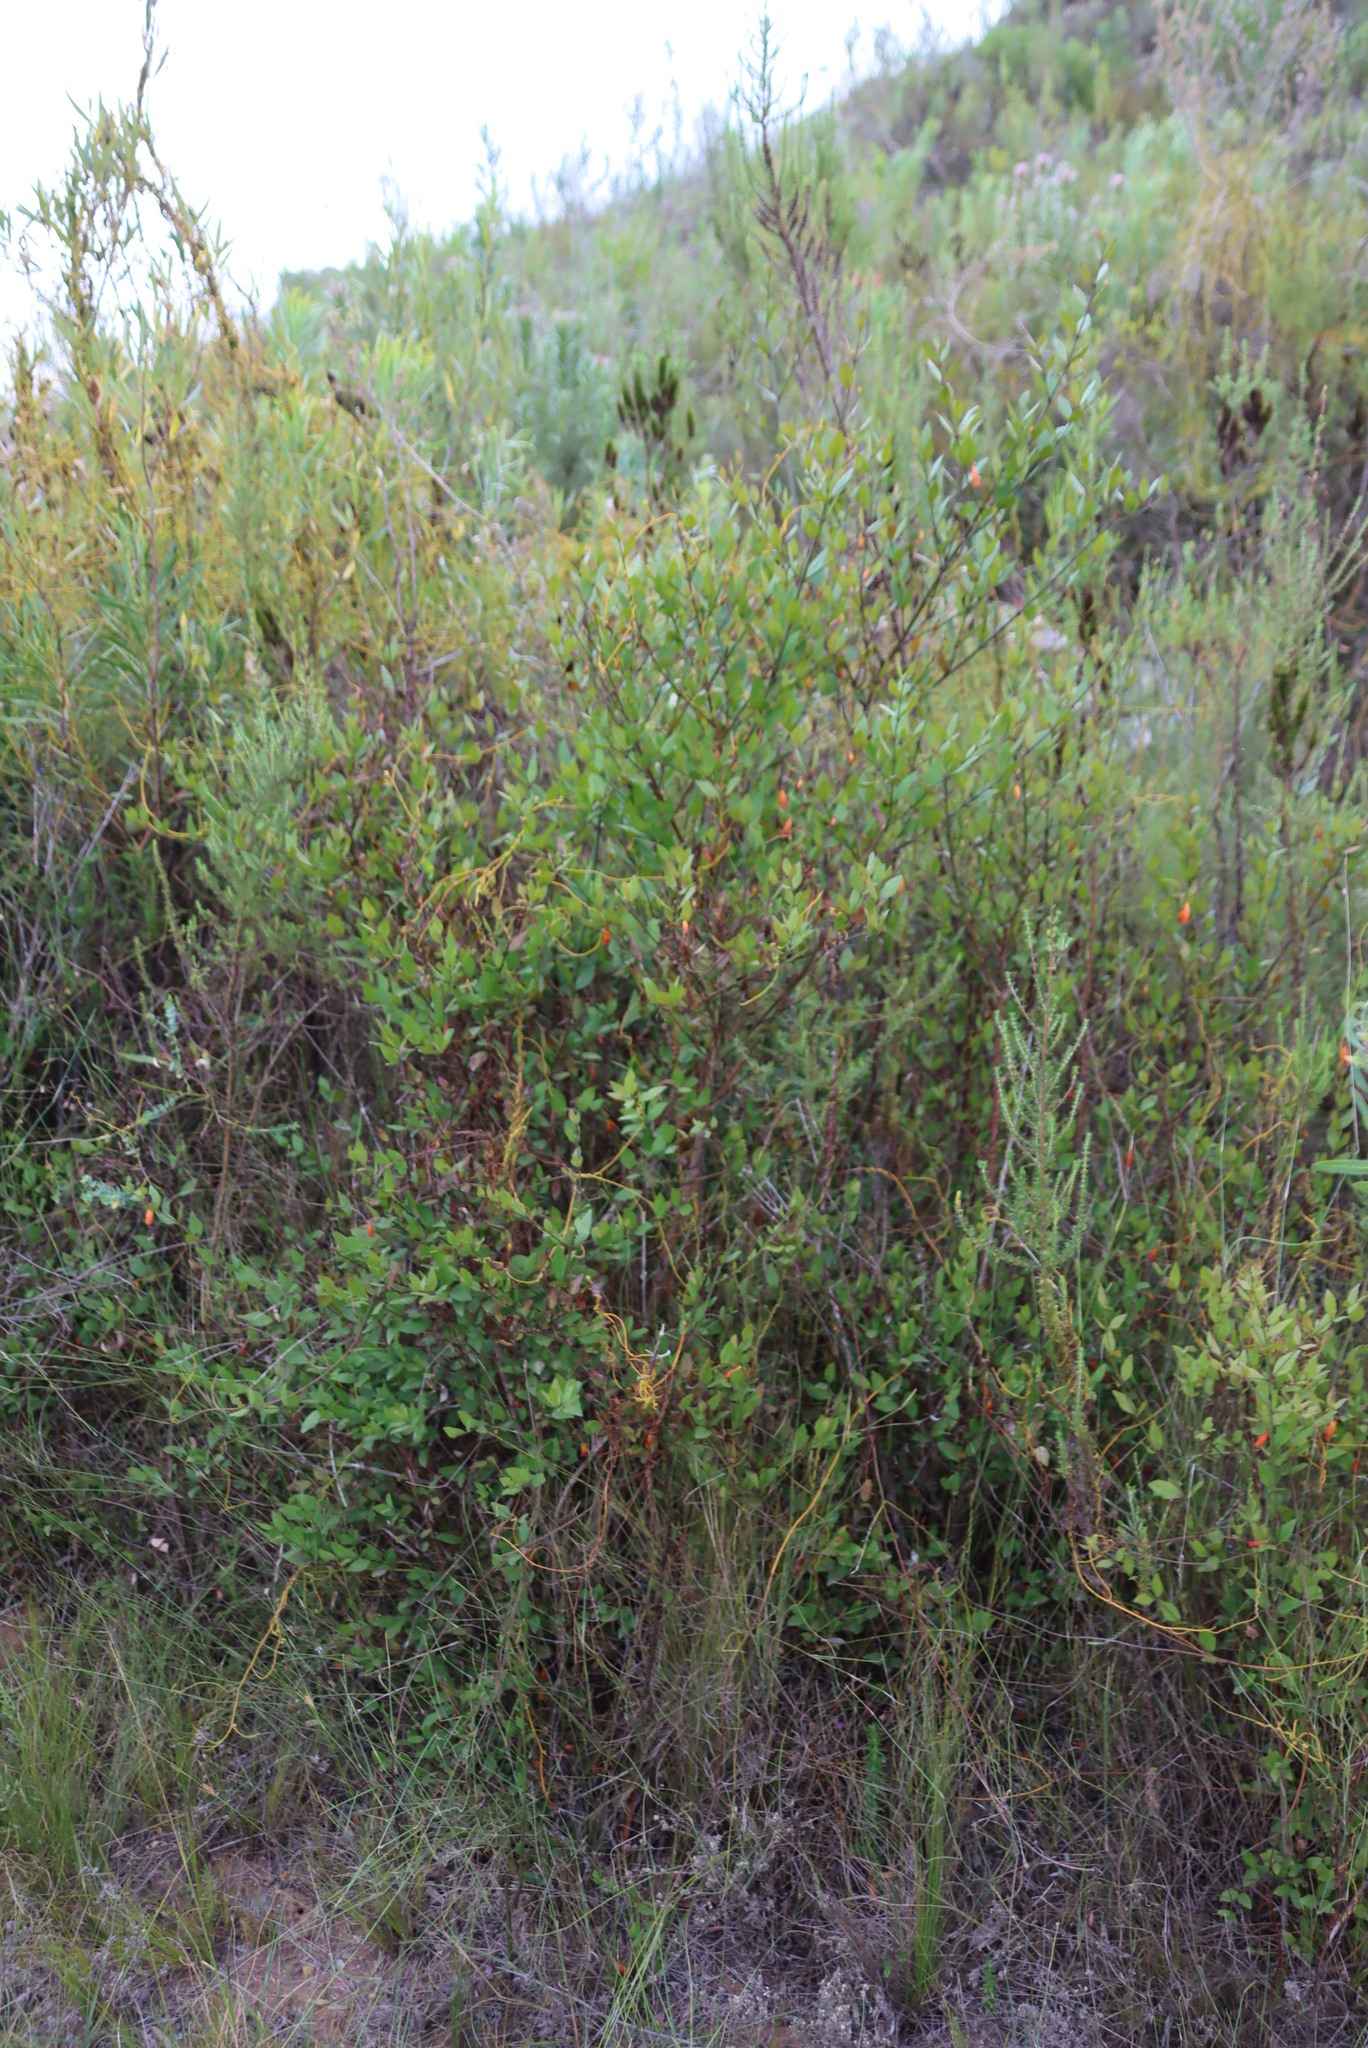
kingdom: Plantae
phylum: Tracheophyta
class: Magnoliopsida
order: Lamiales
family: Stilbaceae
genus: Halleria
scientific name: Halleria elliptica
